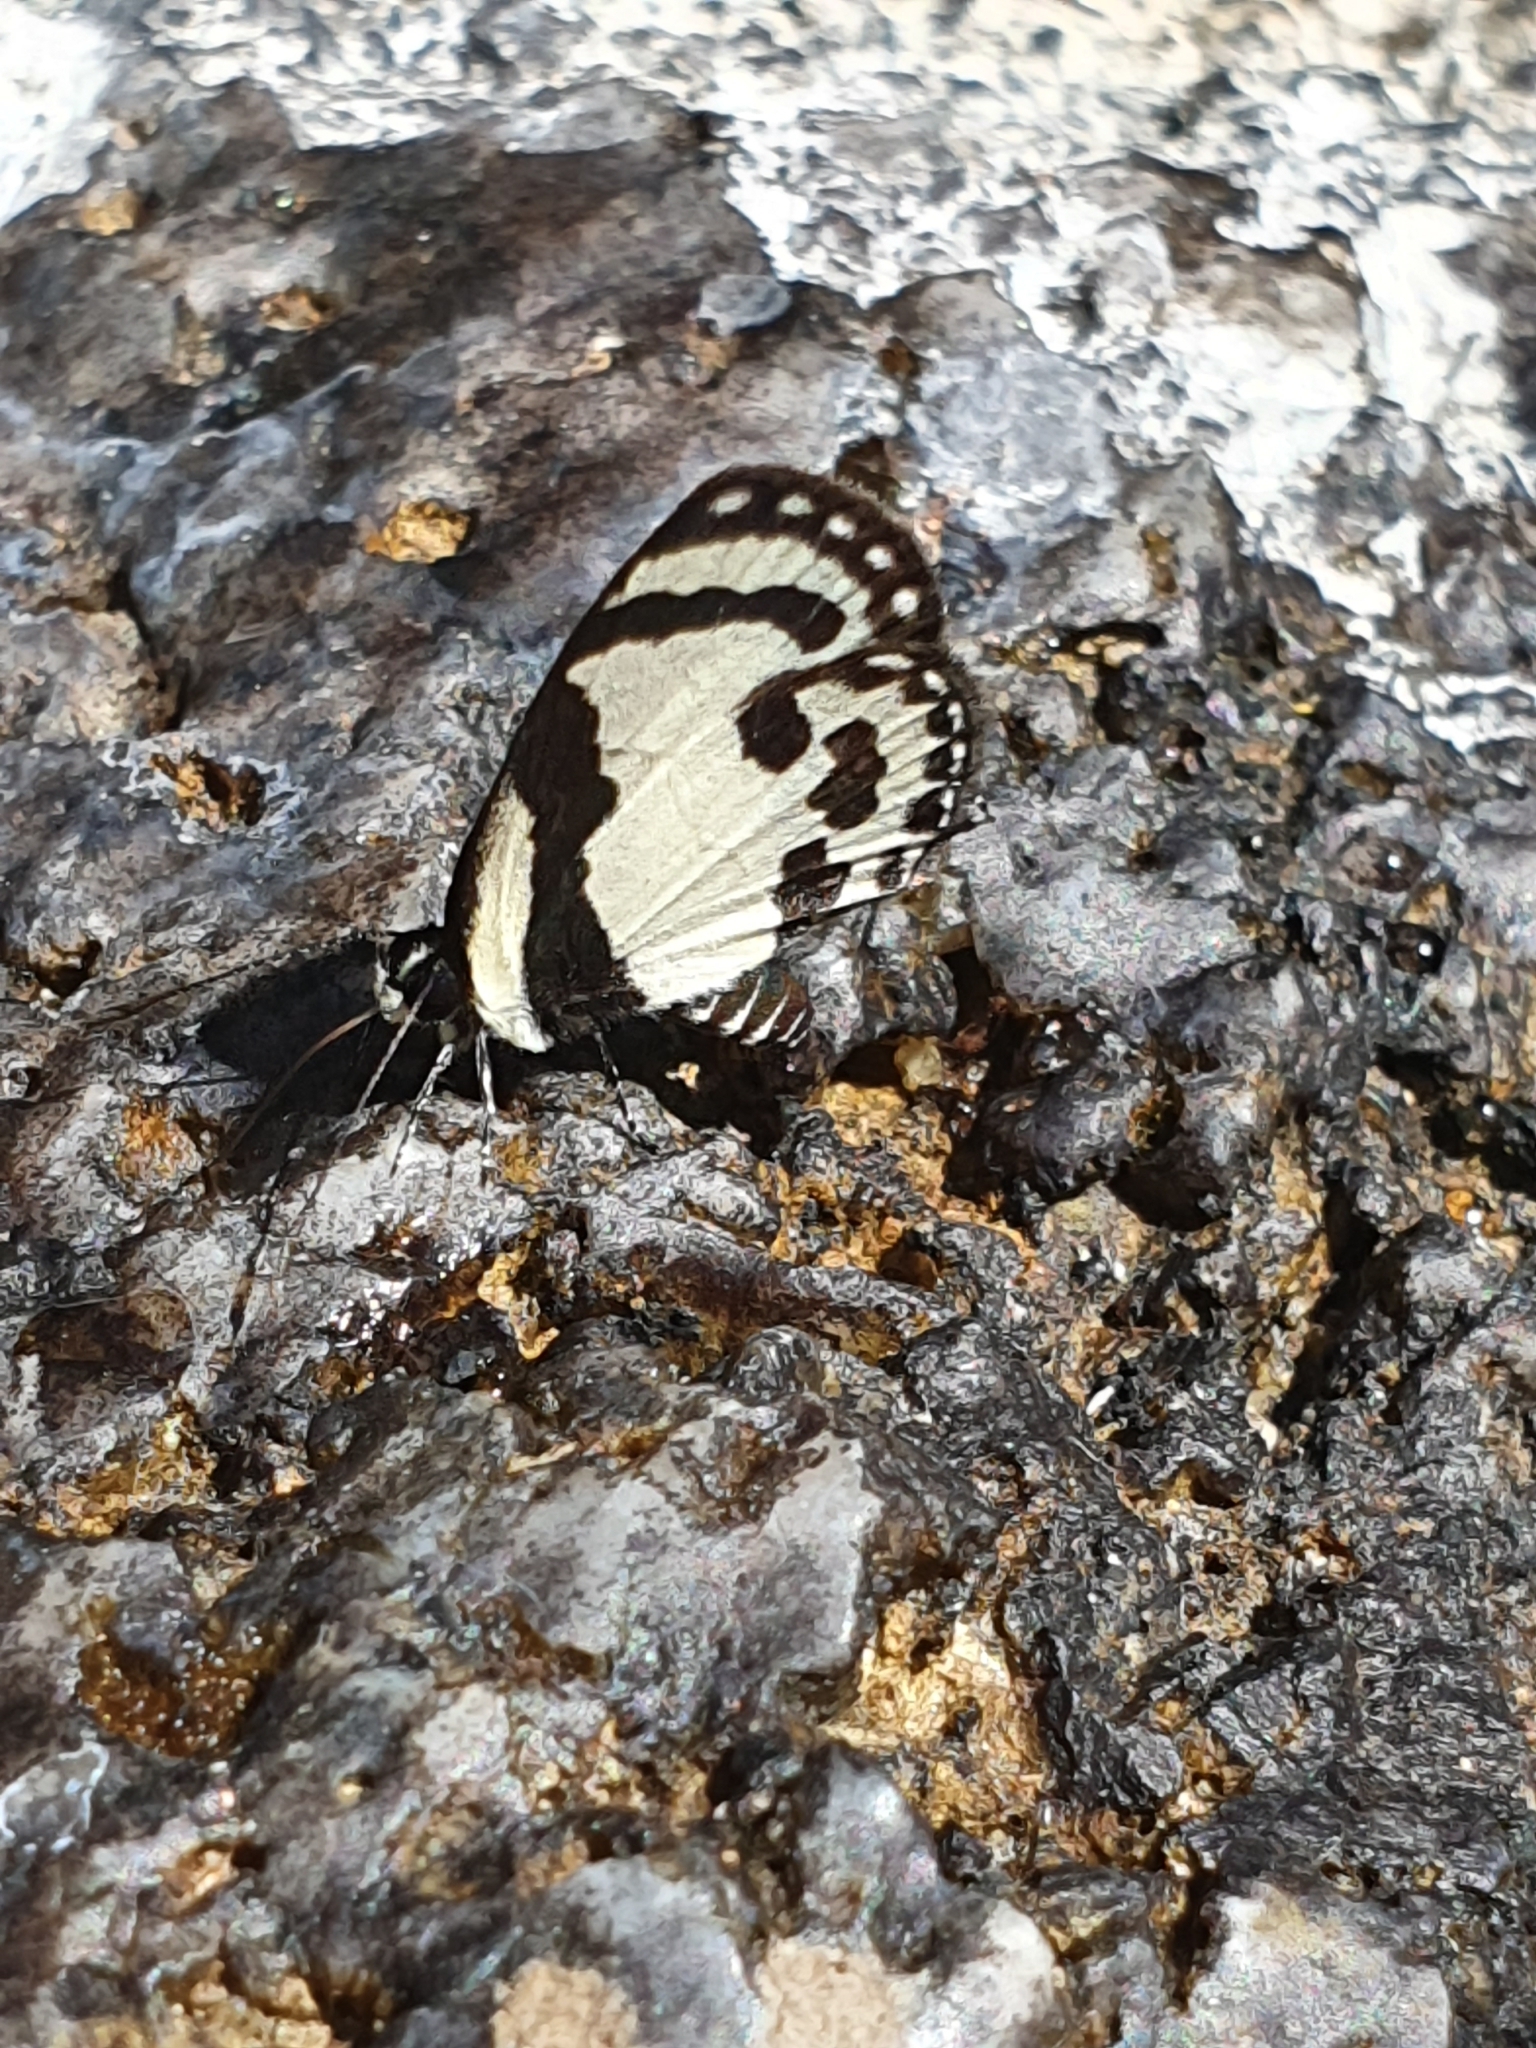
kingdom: Animalia
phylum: Arthropoda
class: Insecta
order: Lepidoptera
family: Lycaenidae
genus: Caleta
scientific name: Caleta roxus
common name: Straight pierrot
